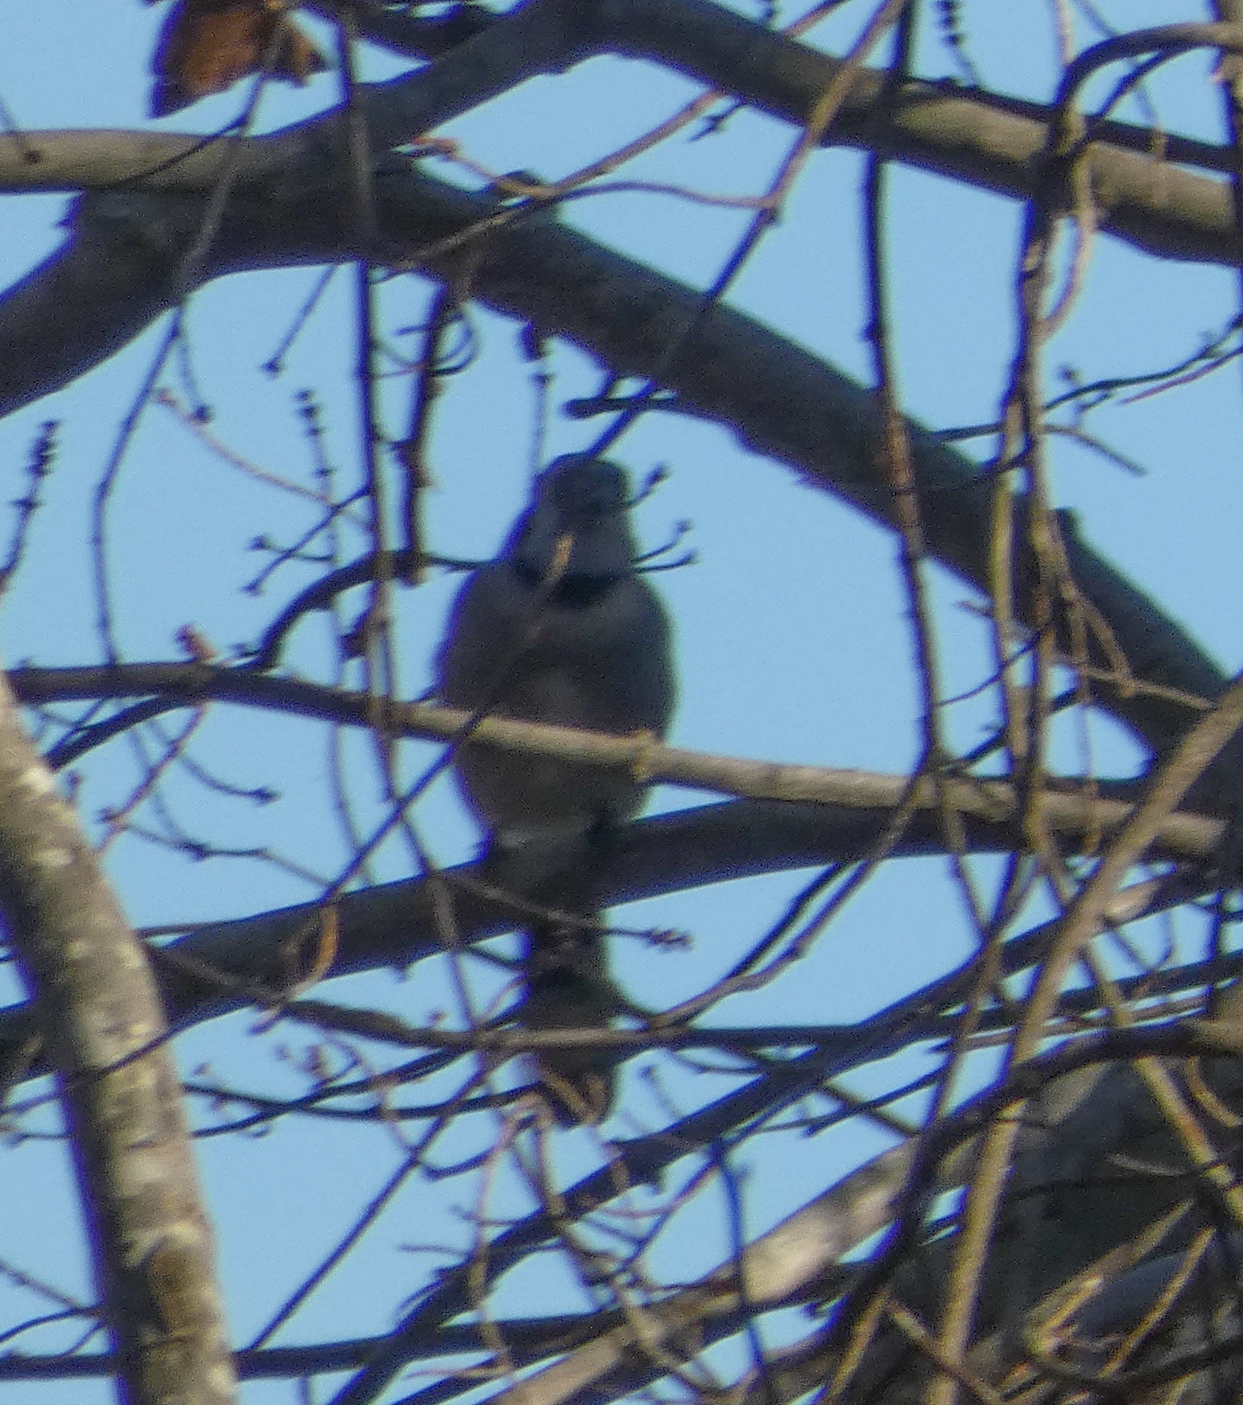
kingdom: Animalia
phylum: Chordata
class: Aves
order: Passeriformes
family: Corvidae
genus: Cyanocitta
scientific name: Cyanocitta cristata
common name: Blue jay
